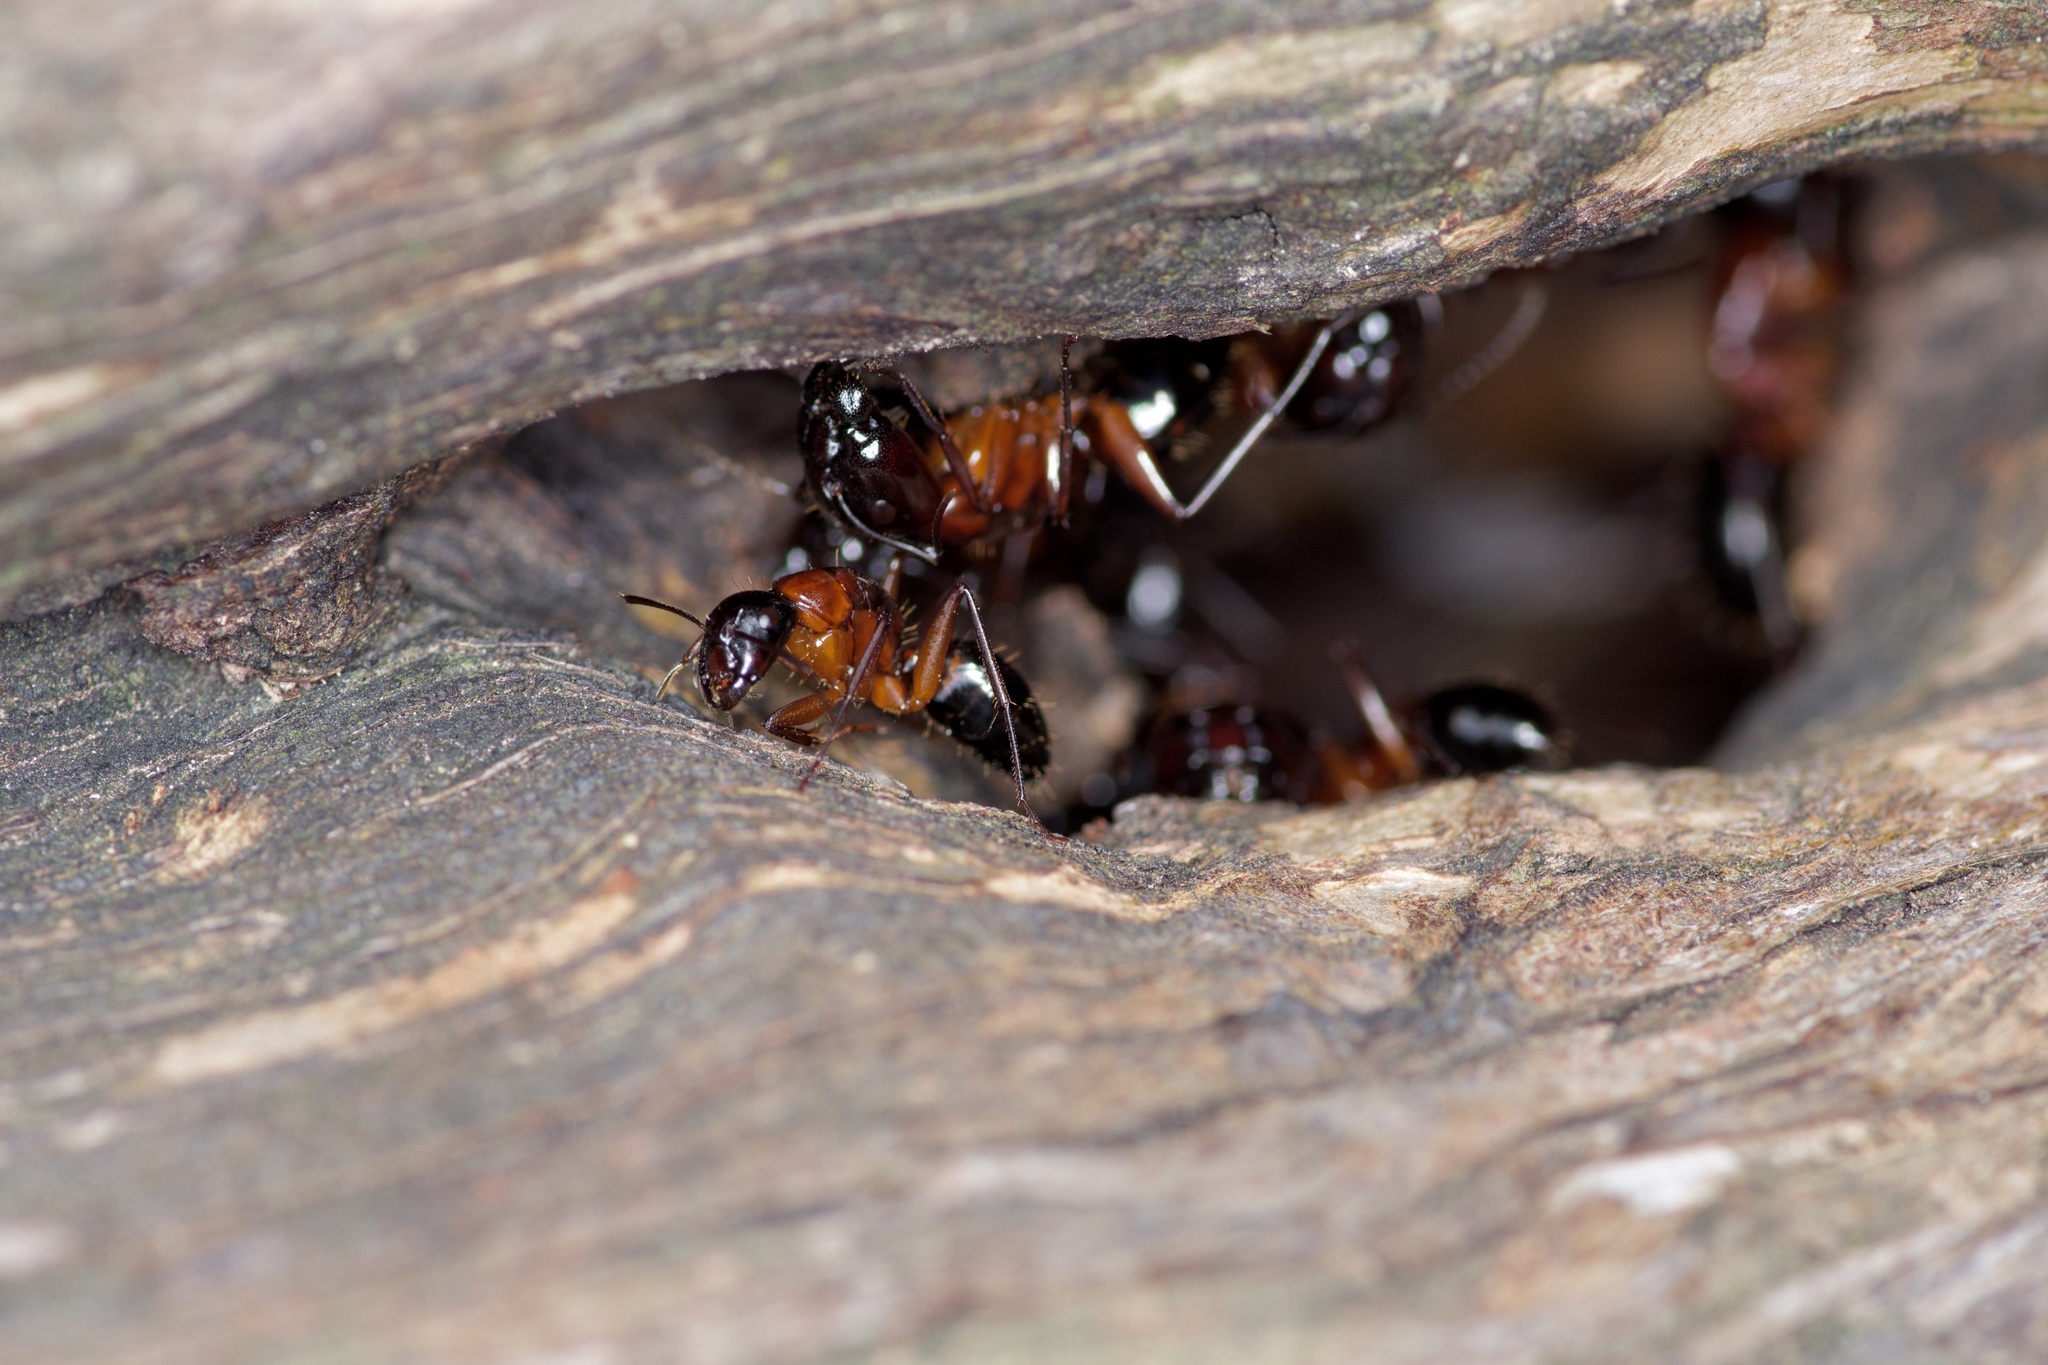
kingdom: Animalia
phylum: Arthropoda
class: Insecta
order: Hymenoptera
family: Formicidae
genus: Camponotus
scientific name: Camponotus texanus
